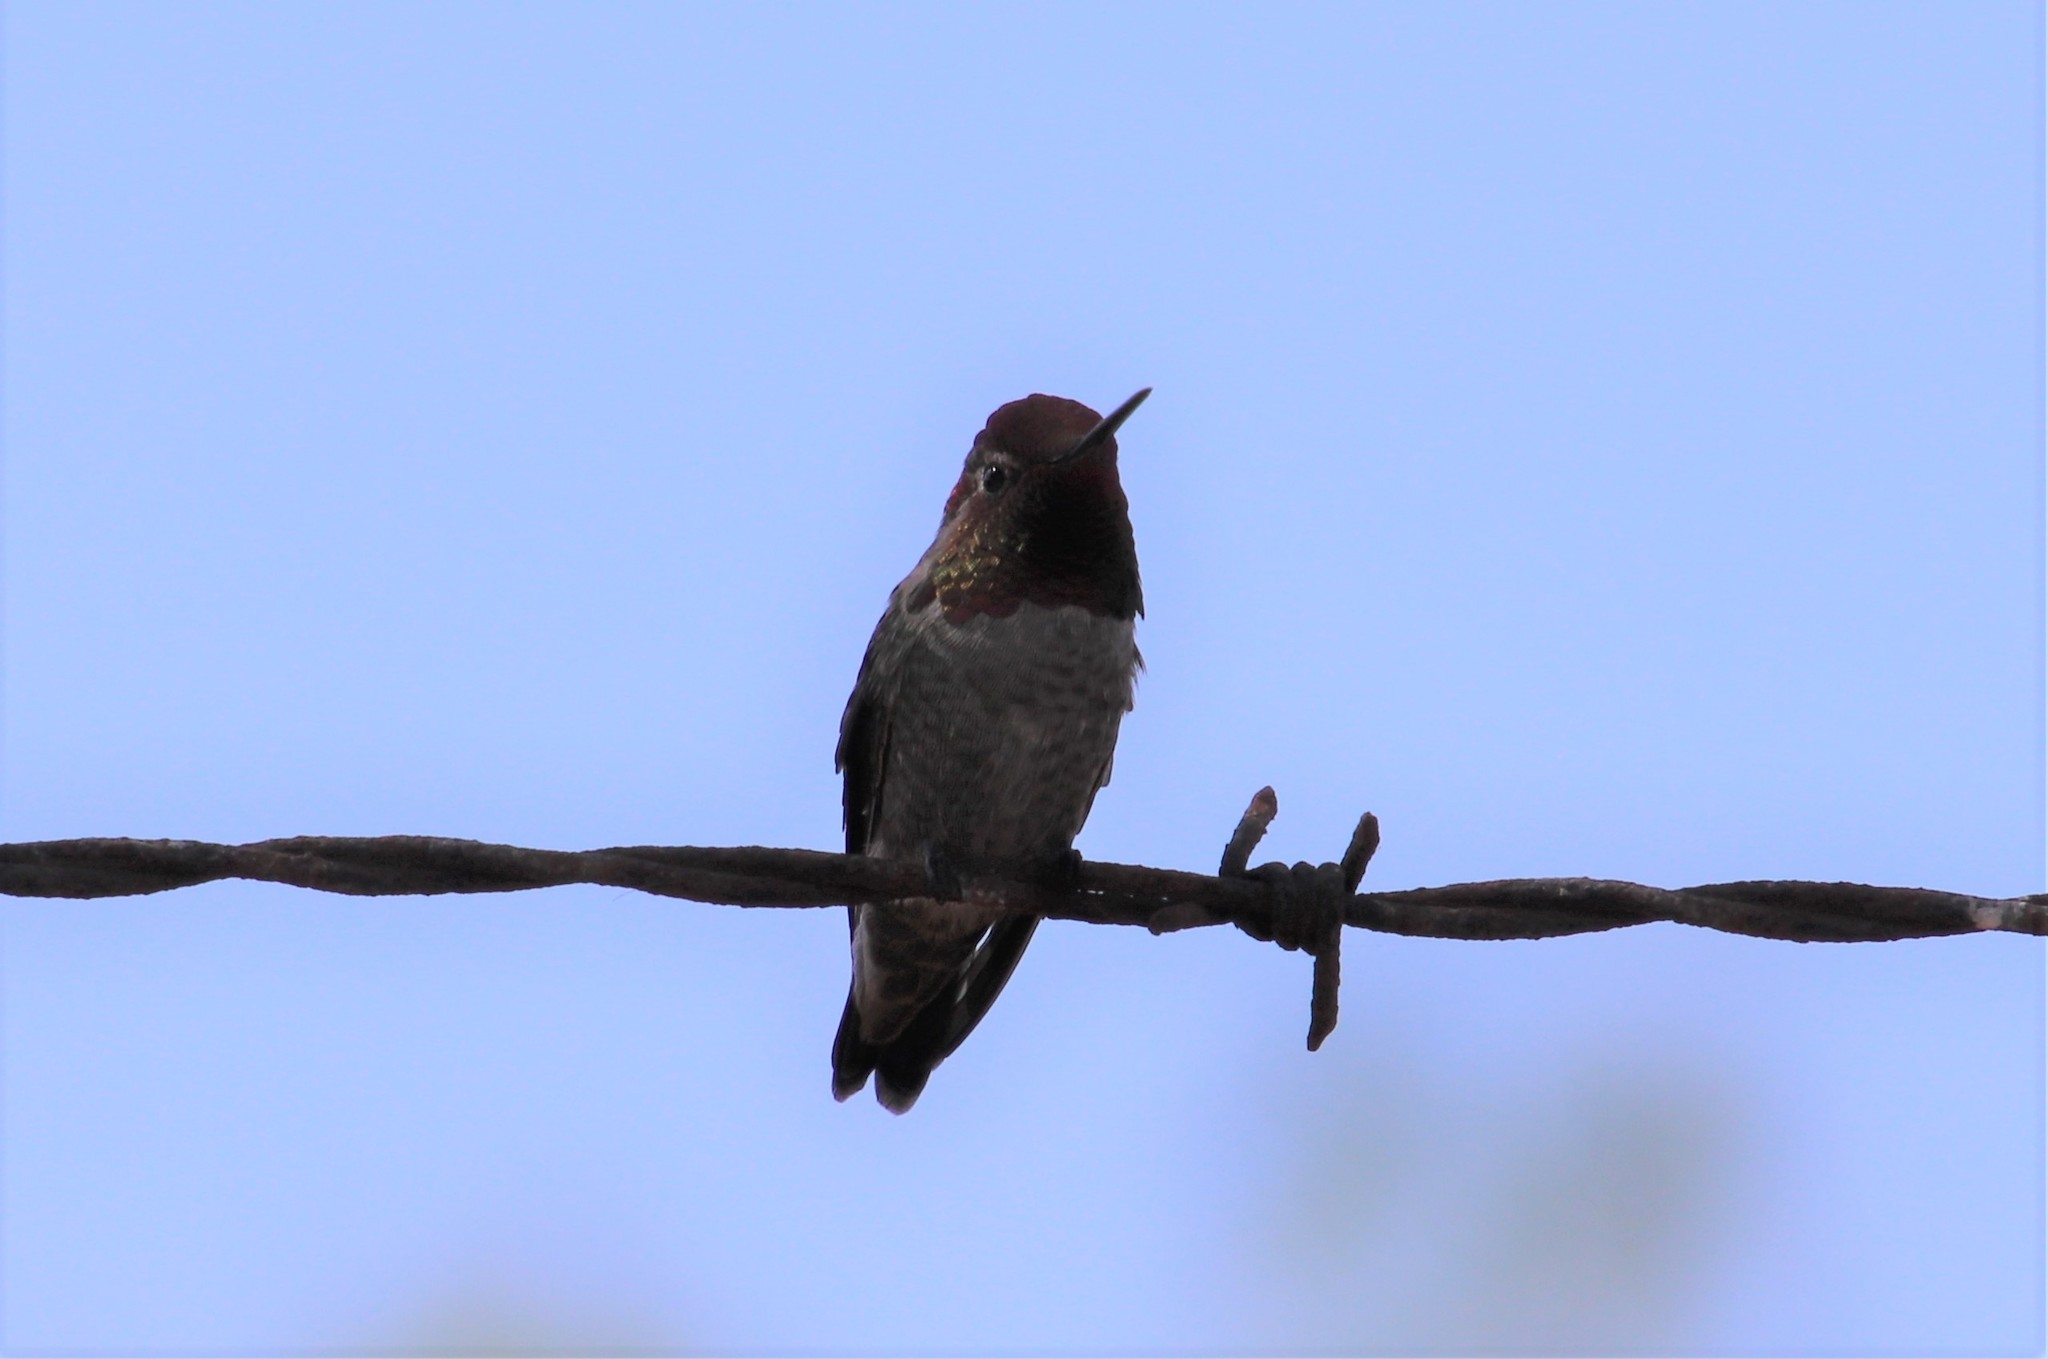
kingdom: Animalia
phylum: Chordata
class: Aves
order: Apodiformes
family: Trochilidae
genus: Calypte
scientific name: Calypte anna
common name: Anna's hummingbird
